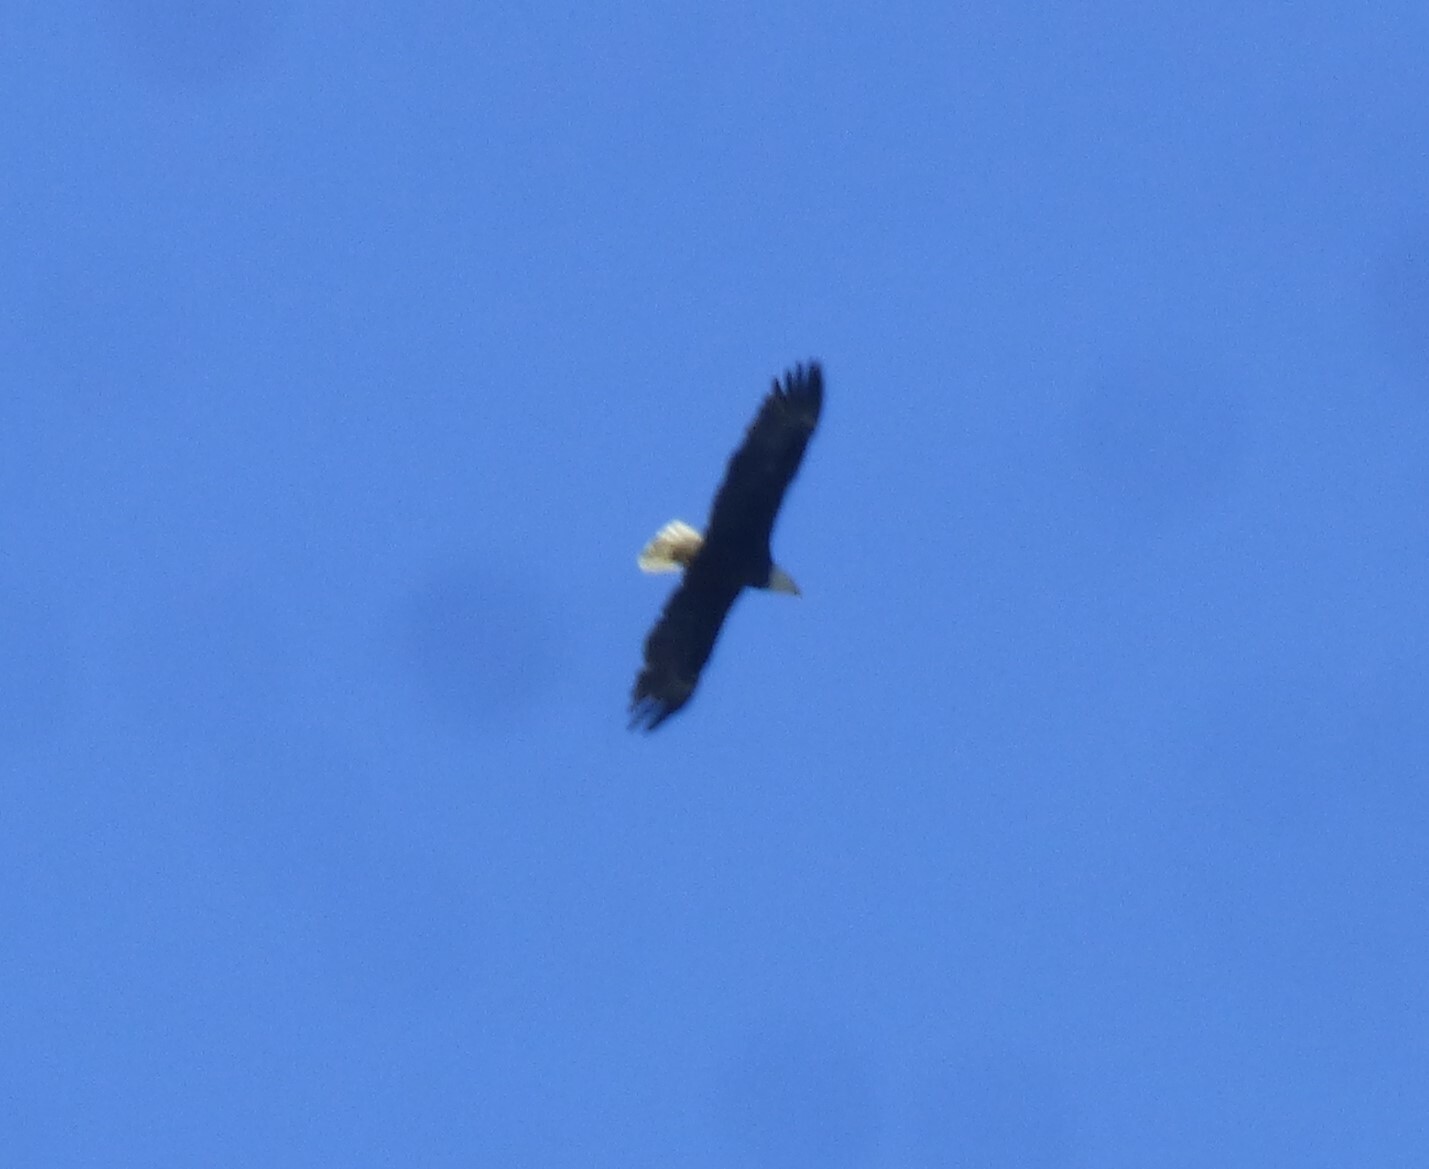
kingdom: Animalia
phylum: Chordata
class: Aves
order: Accipitriformes
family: Accipitridae
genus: Haliaeetus
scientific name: Haliaeetus leucocephalus
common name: Bald eagle
